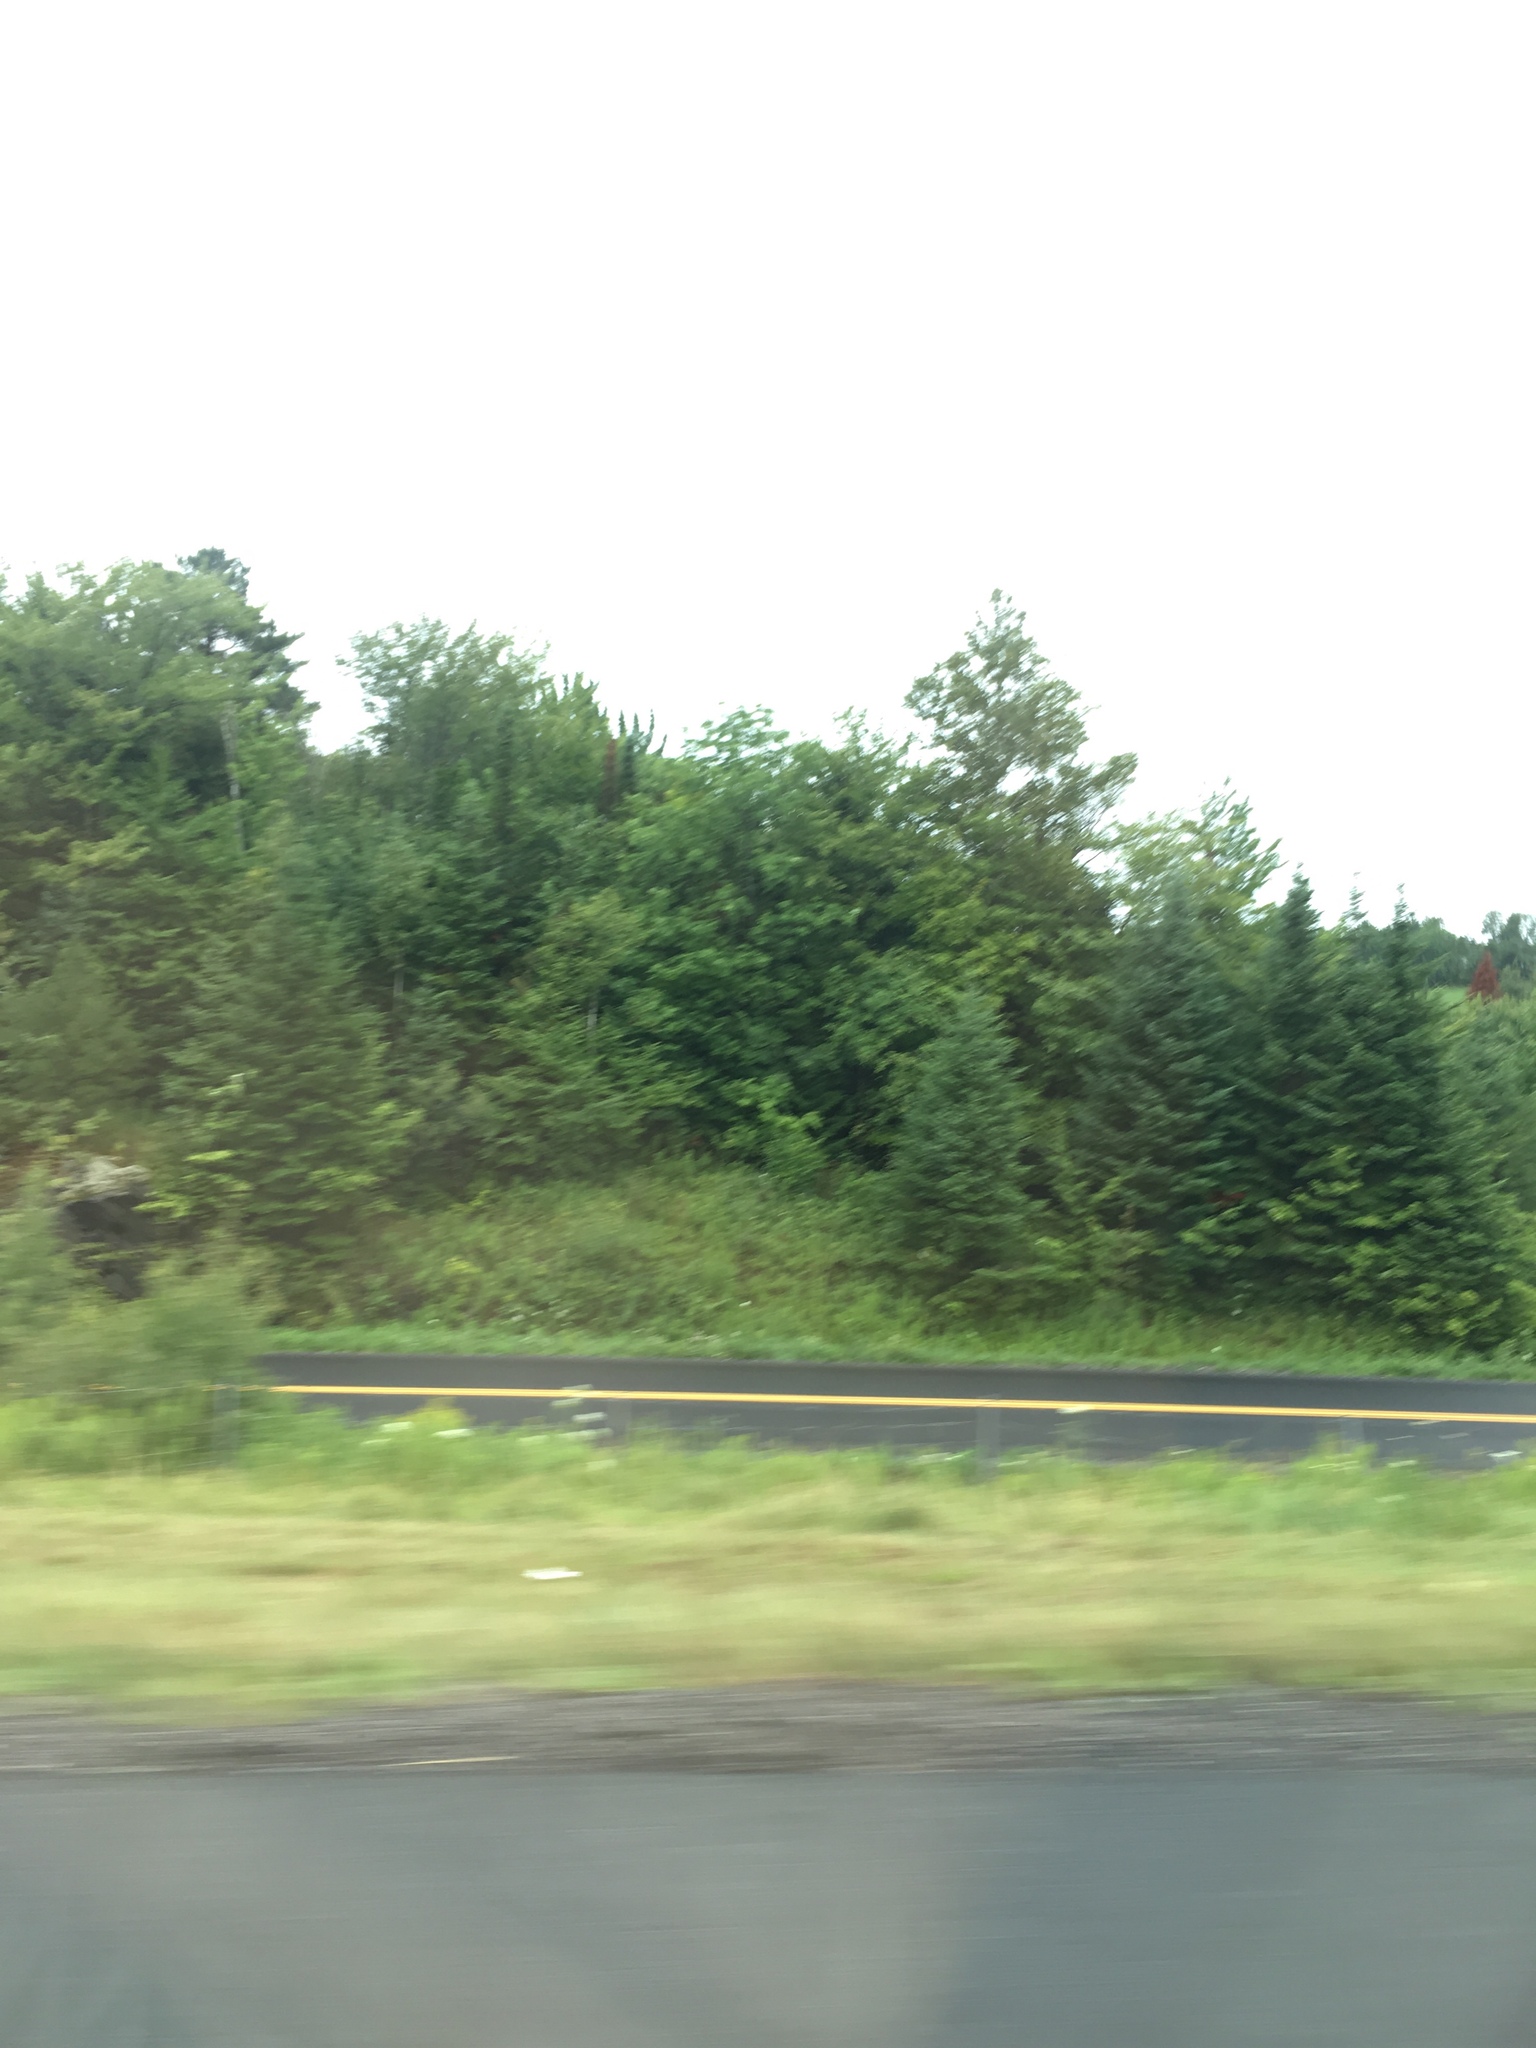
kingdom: Plantae
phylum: Tracheophyta
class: Pinopsida
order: Pinales
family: Pinaceae
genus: Abies
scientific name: Abies balsamea
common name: Balsam fir
